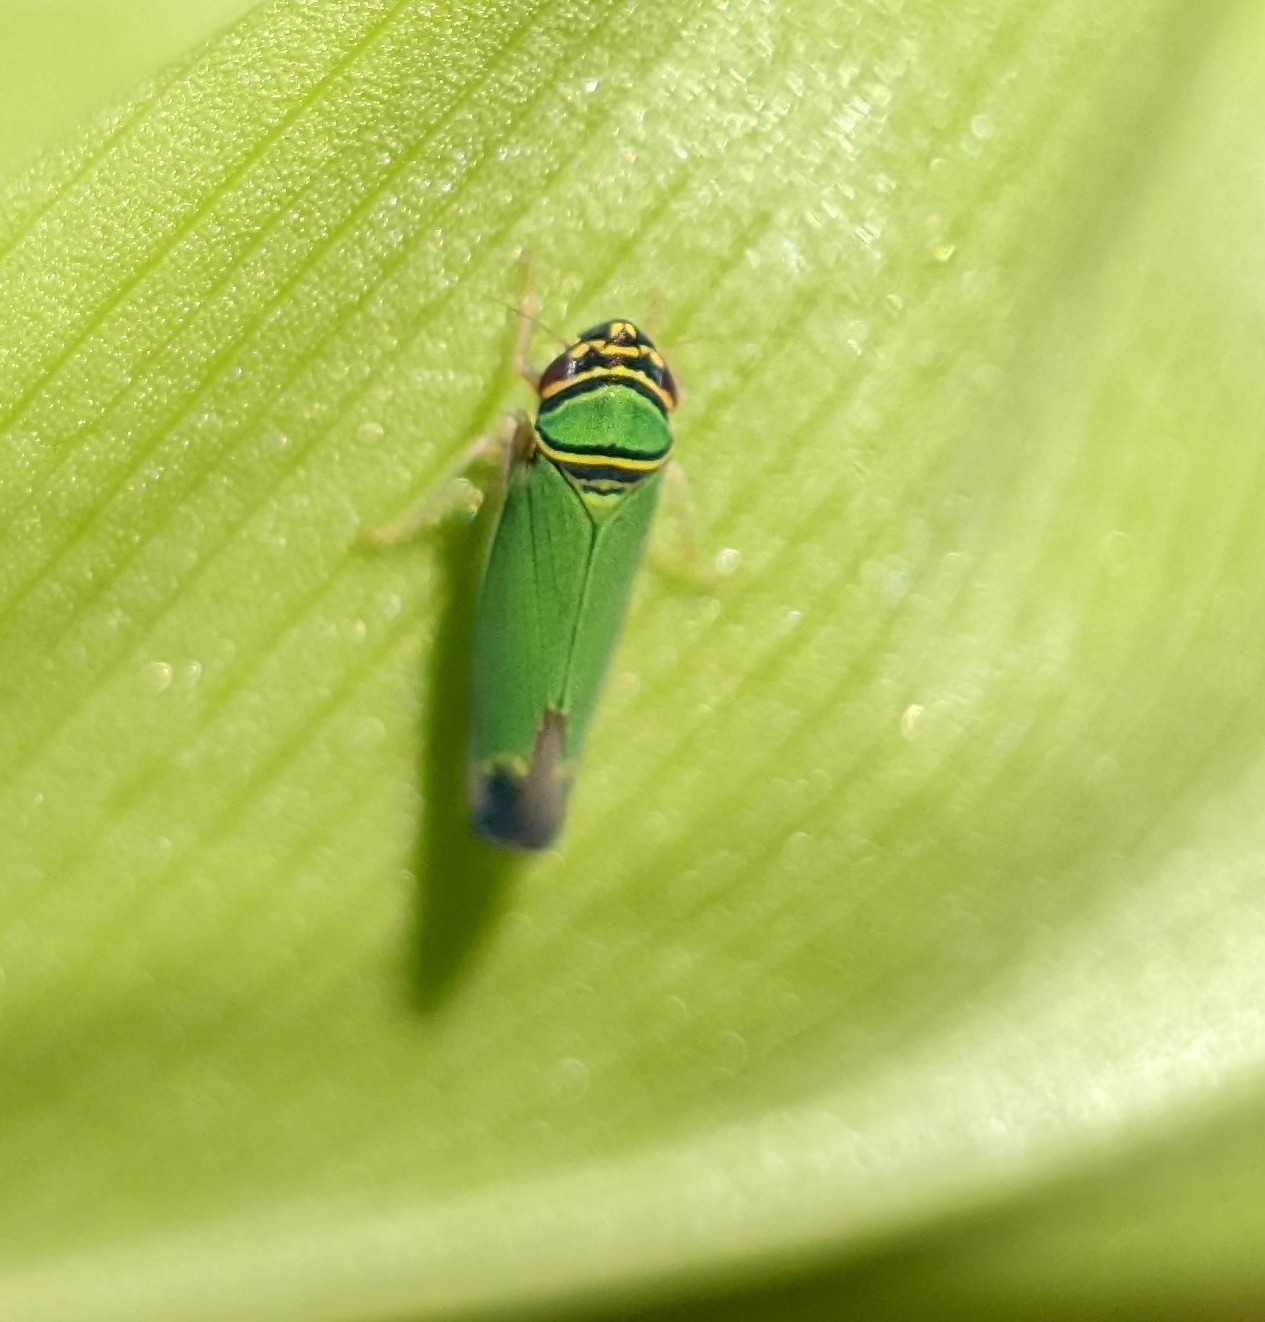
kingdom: Animalia
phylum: Arthropoda
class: Insecta
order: Hemiptera
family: Cicadellidae
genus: Tylozygus
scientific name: Tylozygus geometricus
